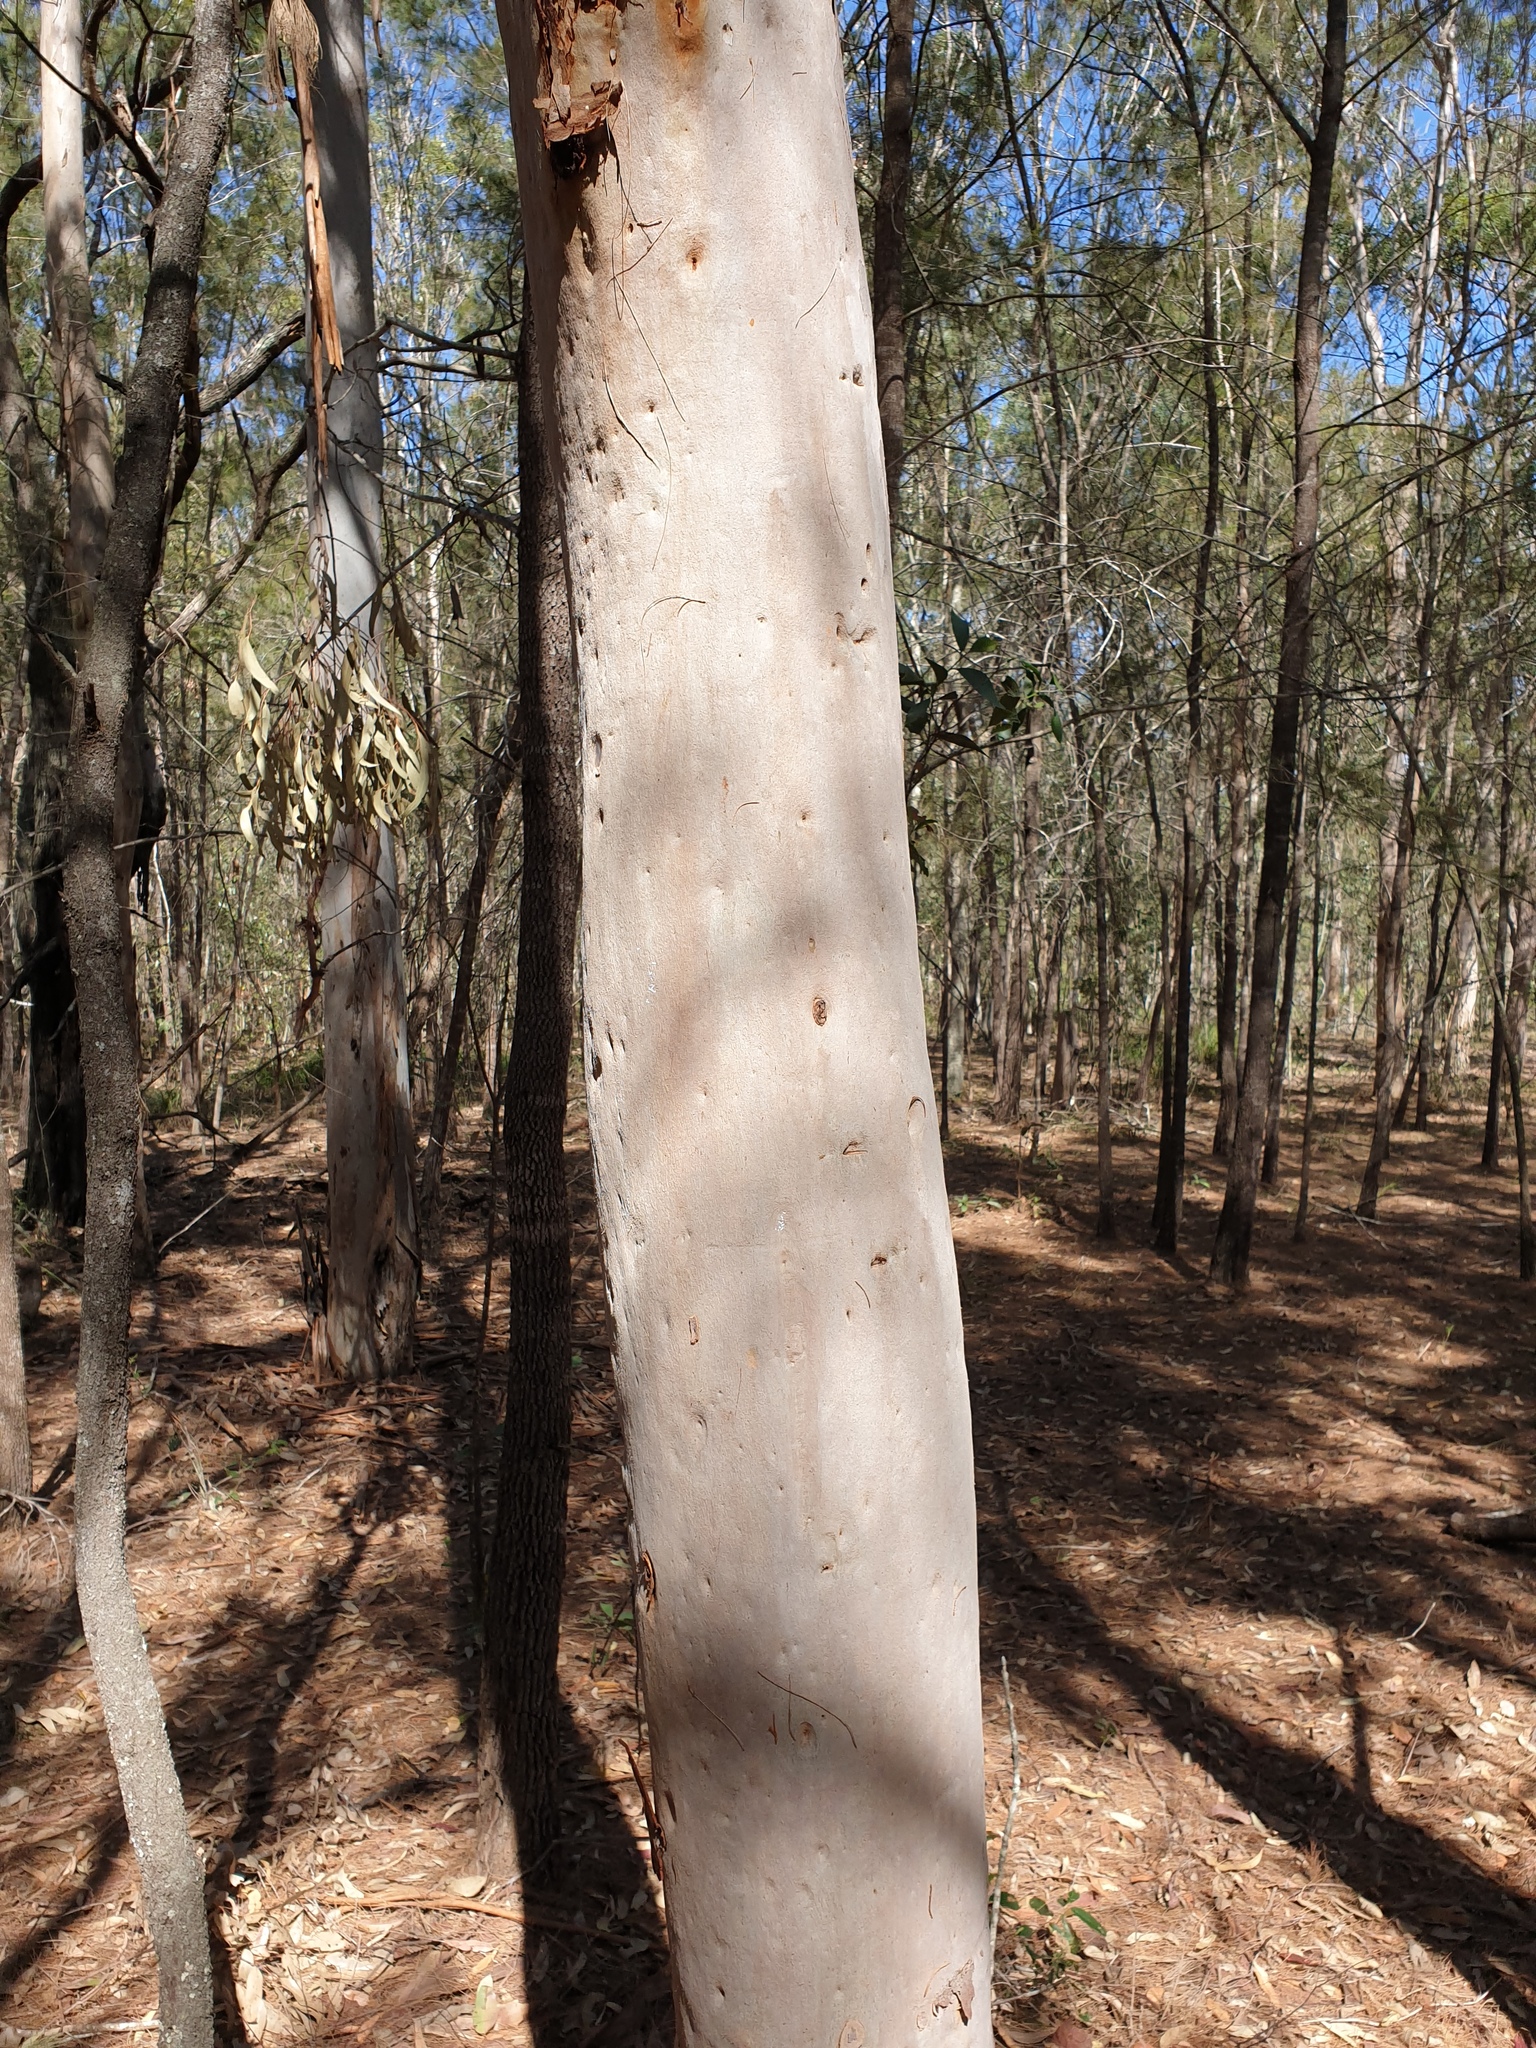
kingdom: Plantae
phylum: Tracheophyta
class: Magnoliopsida
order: Myrtales
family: Myrtaceae
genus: Angophora
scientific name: Angophora leiocarpa
